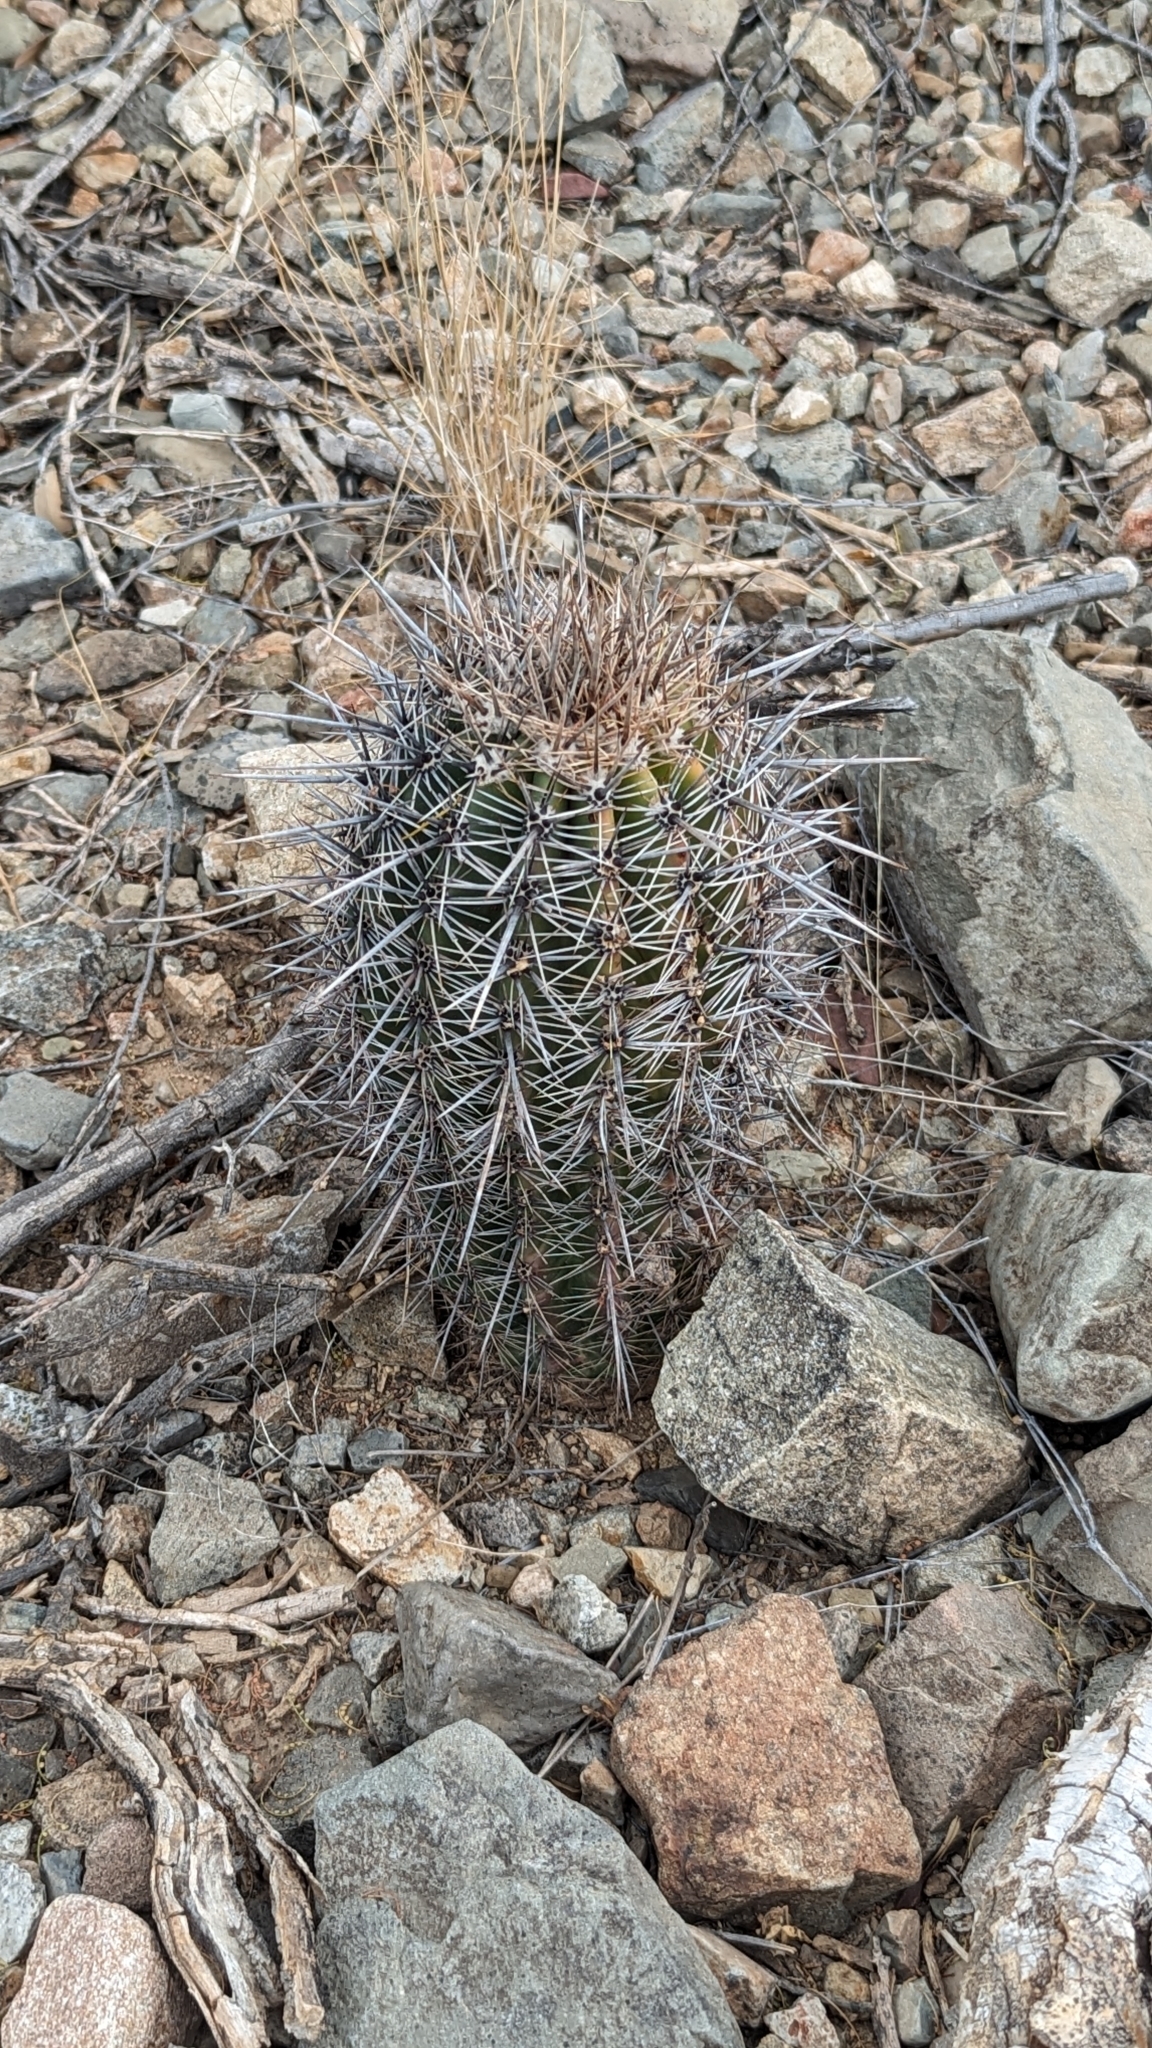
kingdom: Plantae
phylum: Tracheophyta
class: Magnoliopsida
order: Caryophyllales
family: Cactaceae
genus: Carnegiea
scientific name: Carnegiea gigantea
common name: Saguaro
